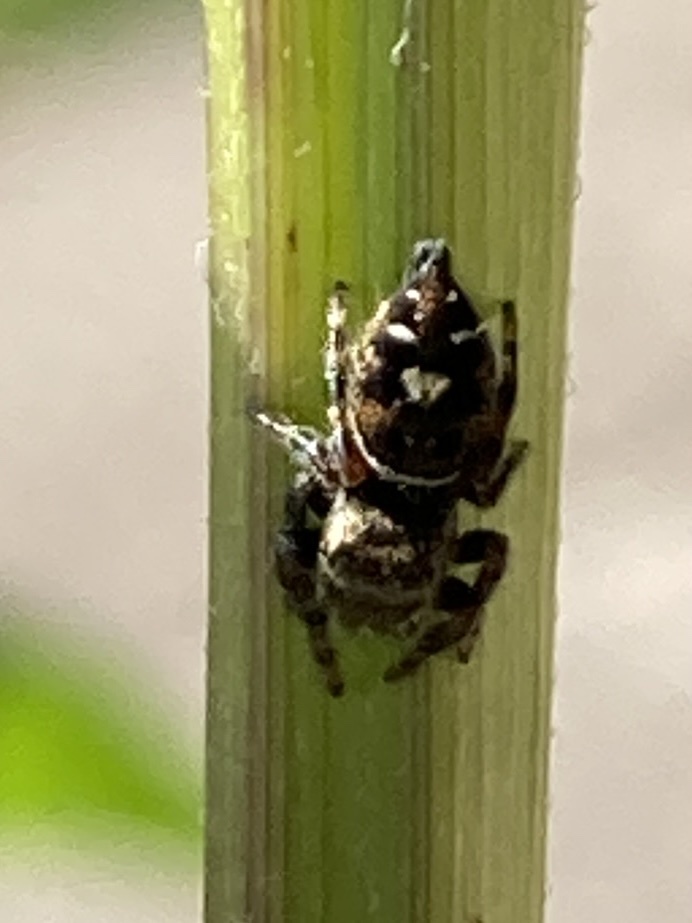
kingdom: Animalia
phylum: Arthropoda
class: Arachnida
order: Araneae
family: Salticidae
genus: Phidippus
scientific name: Phidippus audax
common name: Bold jumper
